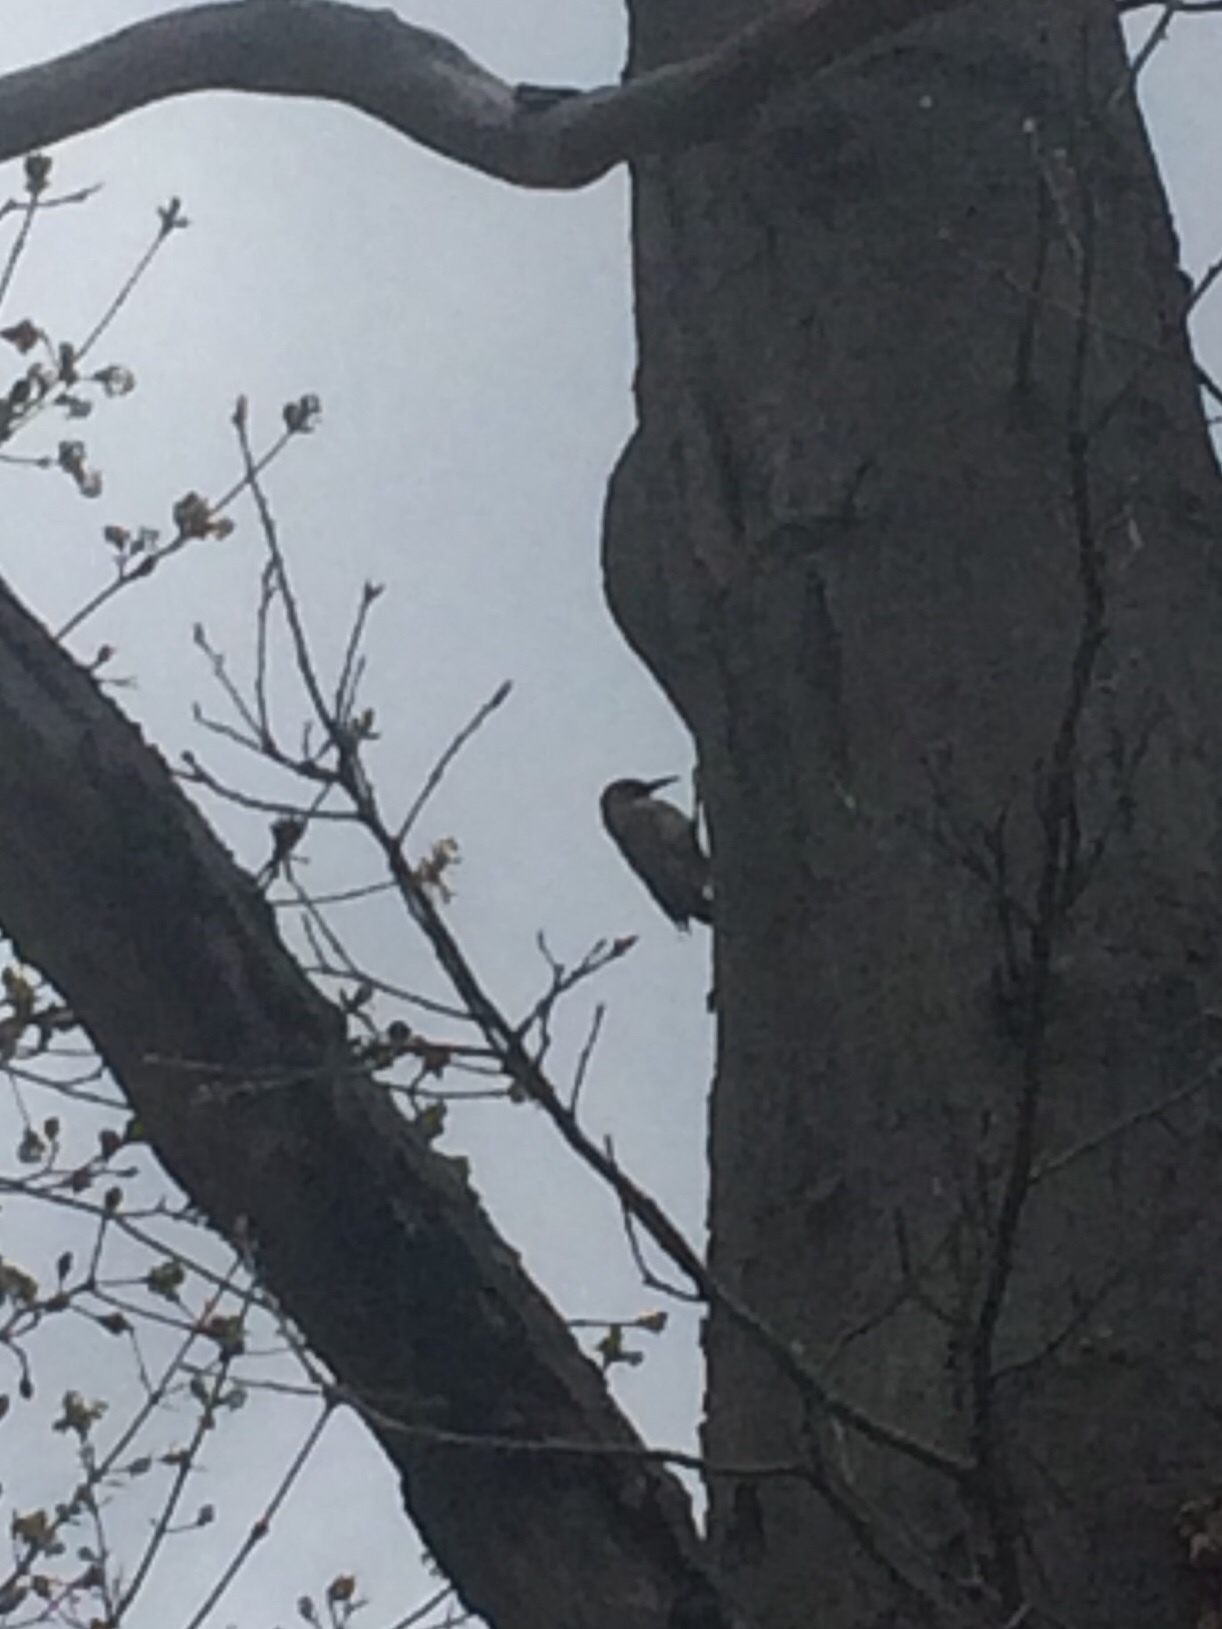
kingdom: Animalia
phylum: Chordata
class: Aves
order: Piciformes
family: Picidae
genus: Colaptes
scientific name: Colaptes auratus
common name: Northern flicker
